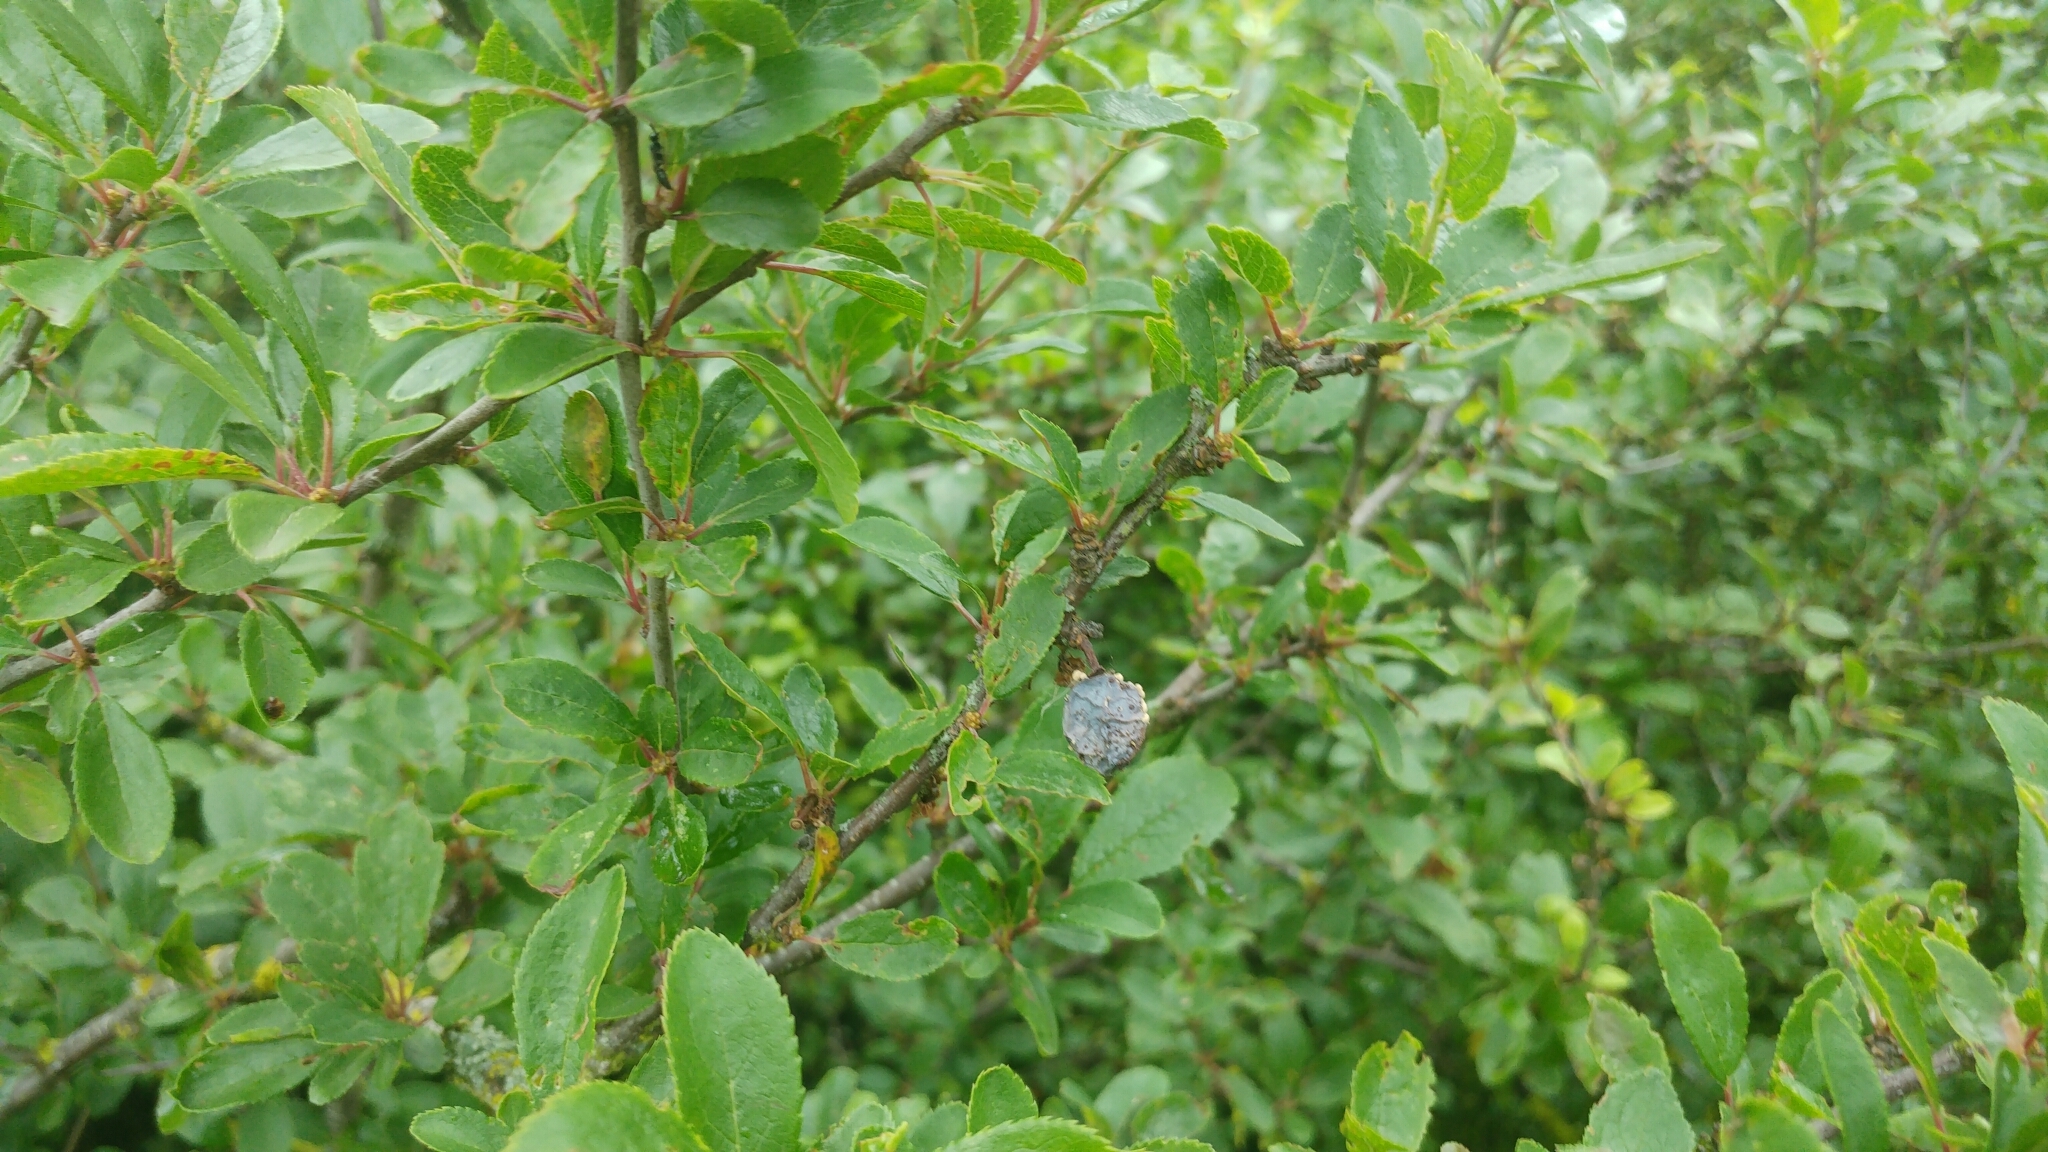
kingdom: Plantae
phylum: Tracheophyta
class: Magnoliopsida
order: Rosales
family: Rosaceae
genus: Prunus
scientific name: Prunus spinosa
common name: Blackthorn
